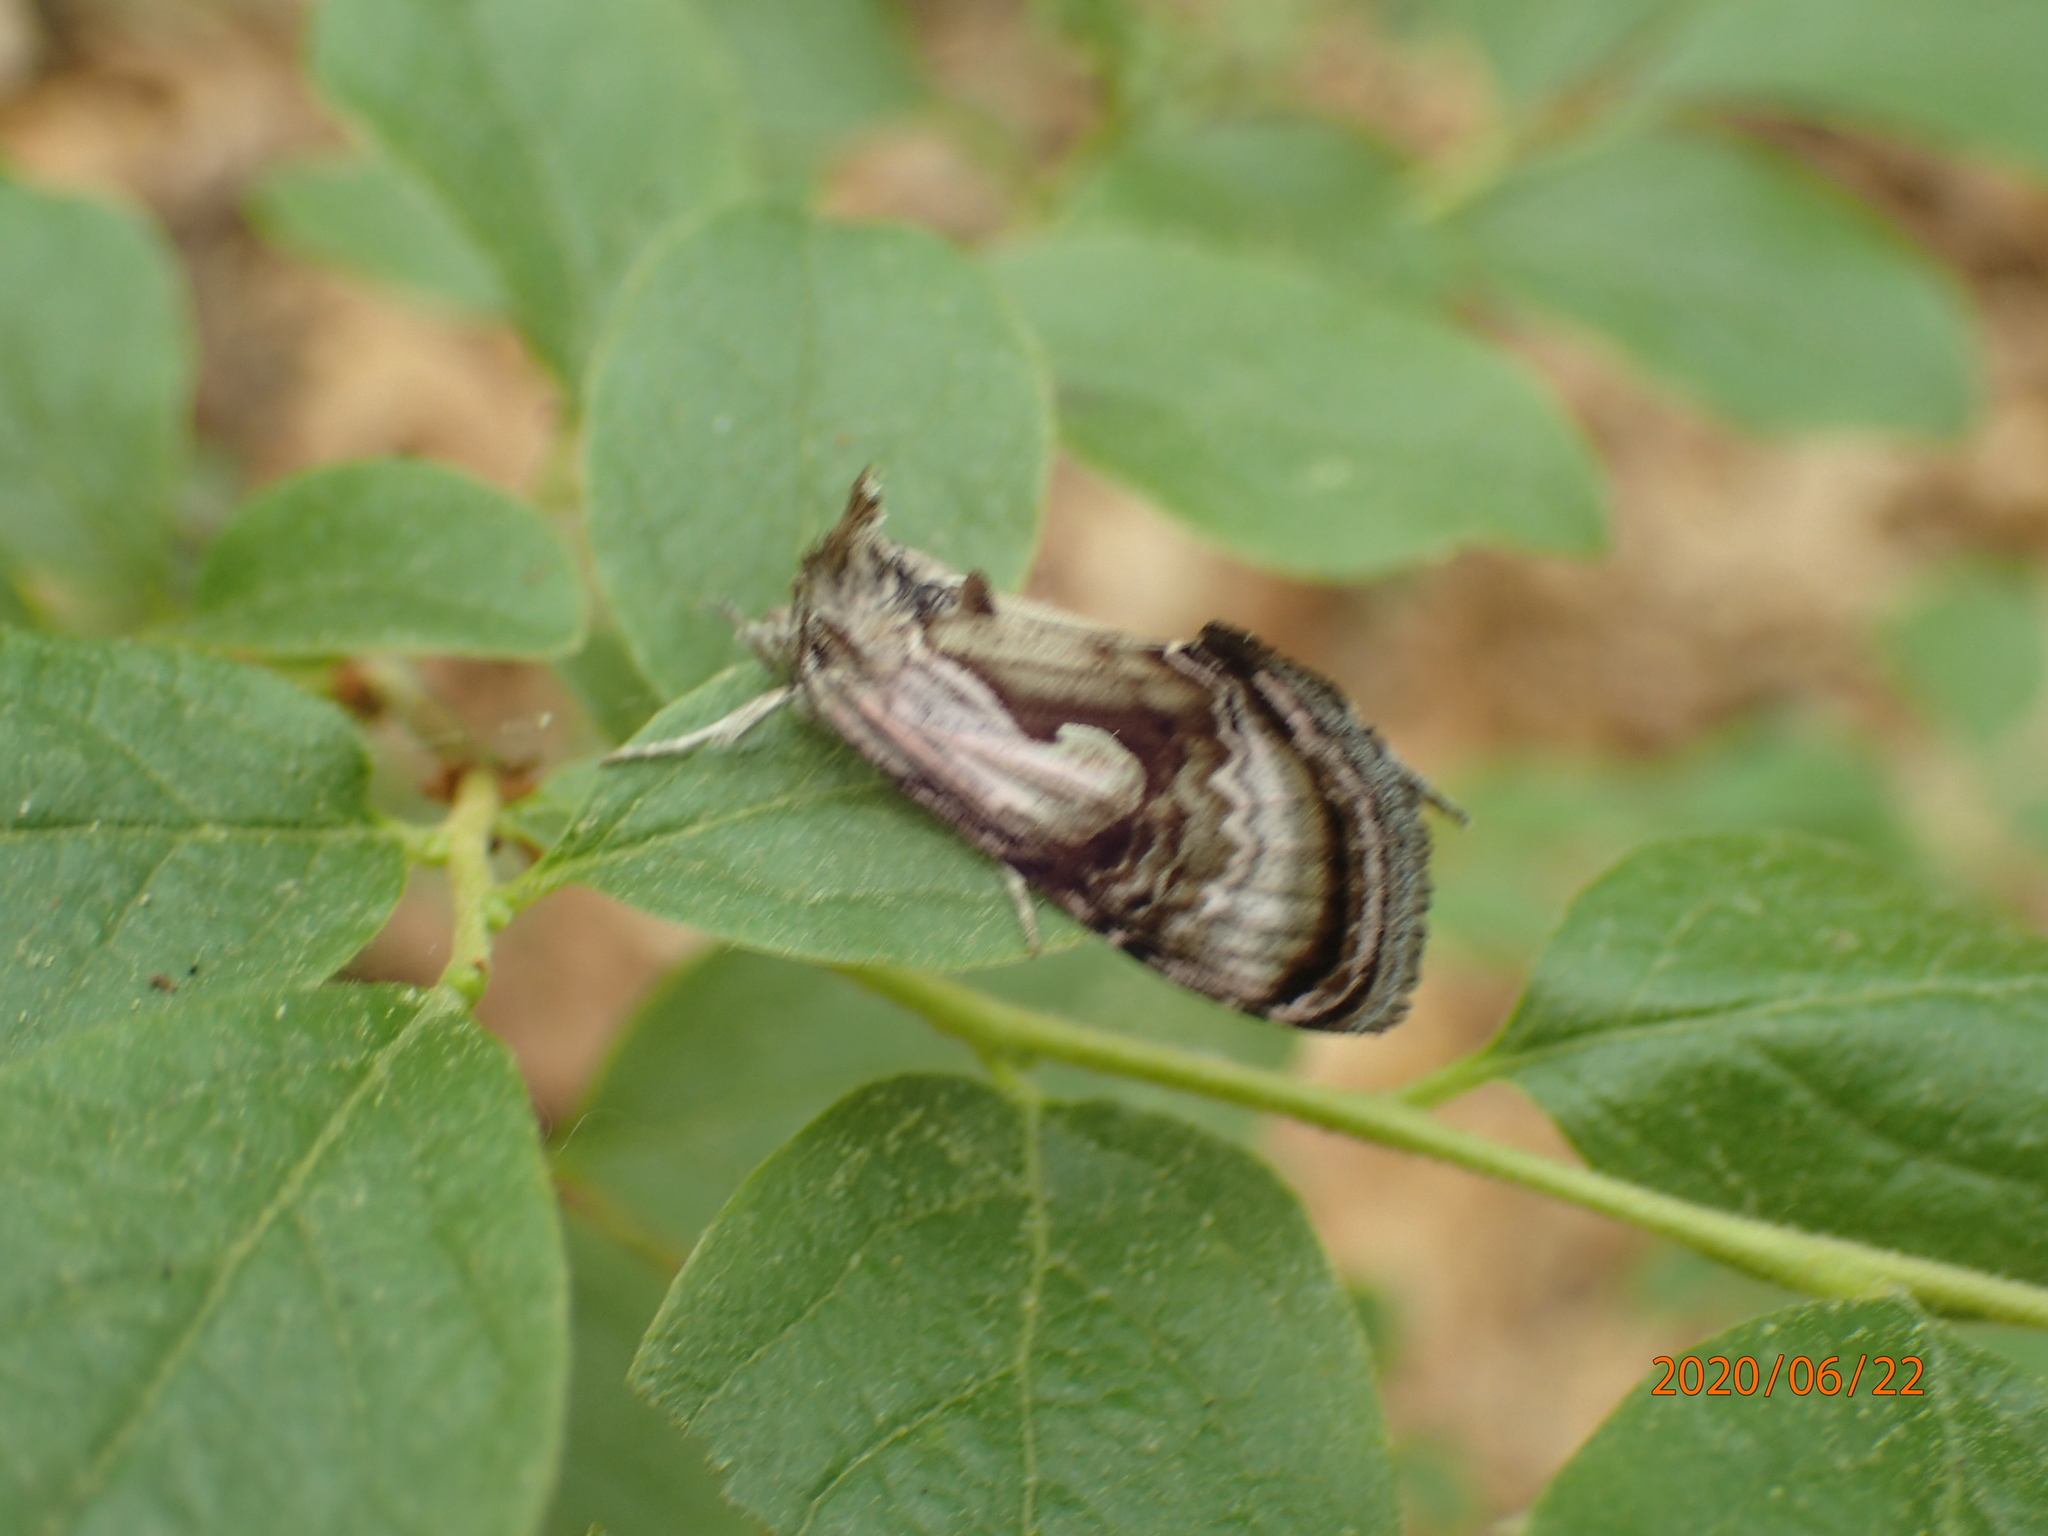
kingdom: Animalia
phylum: Arthropoda
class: Insecta
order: Lepidoptera
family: Noctuidae
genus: Chrysanympha
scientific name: Chrysanympha formosa
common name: Formosa looper moth
